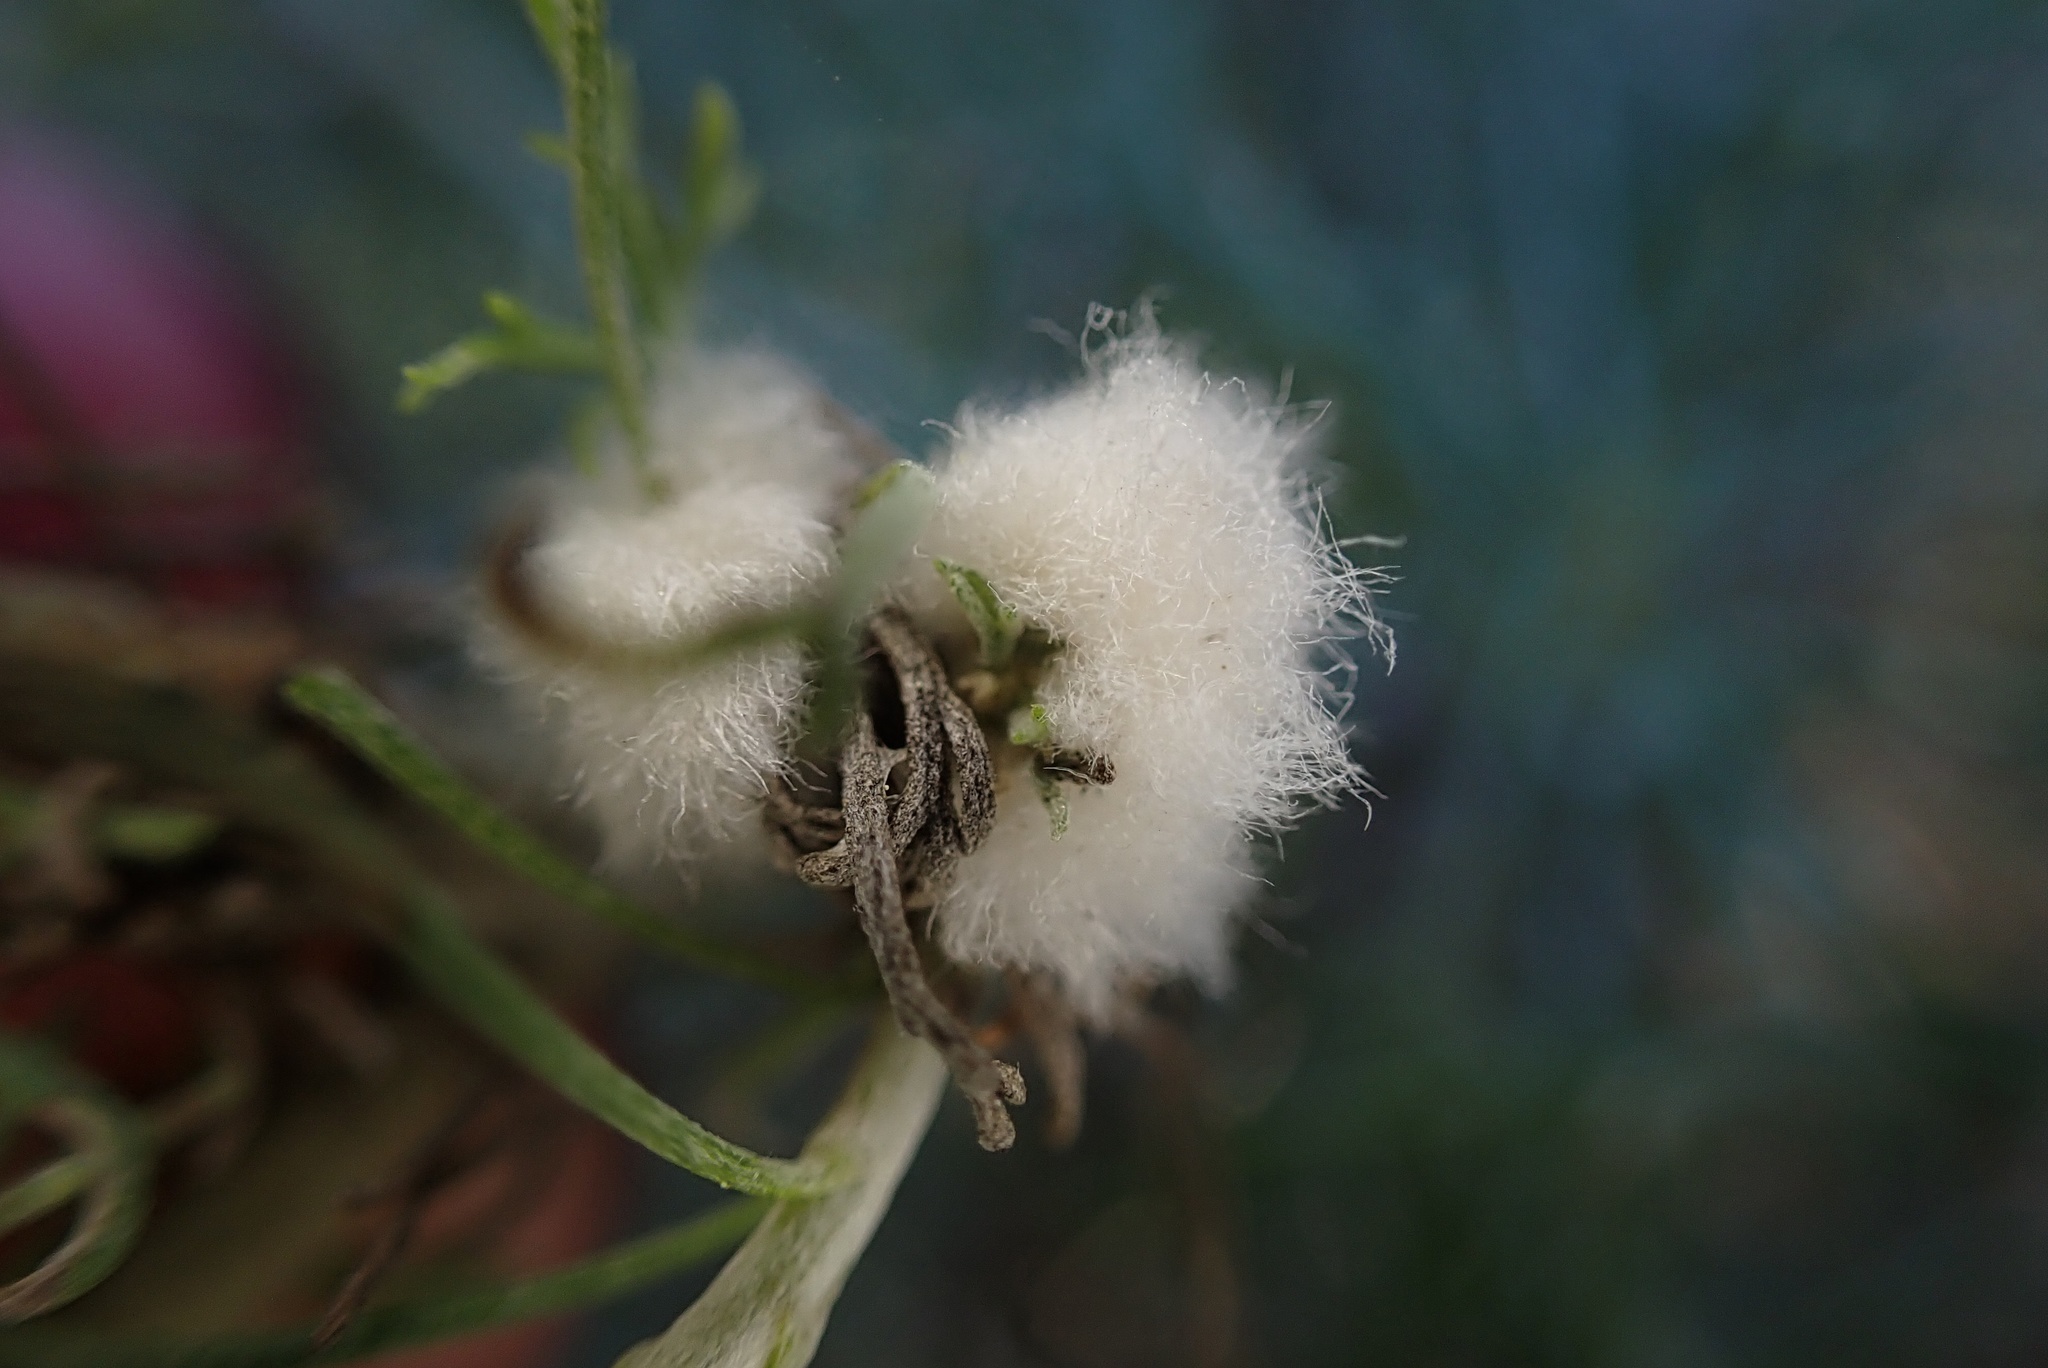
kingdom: Animalia
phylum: Arthropoda
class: Insecta
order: Diptera
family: Cecidomyiidae
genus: Rhopalomyia
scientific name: Rhopalomyia floccosa
